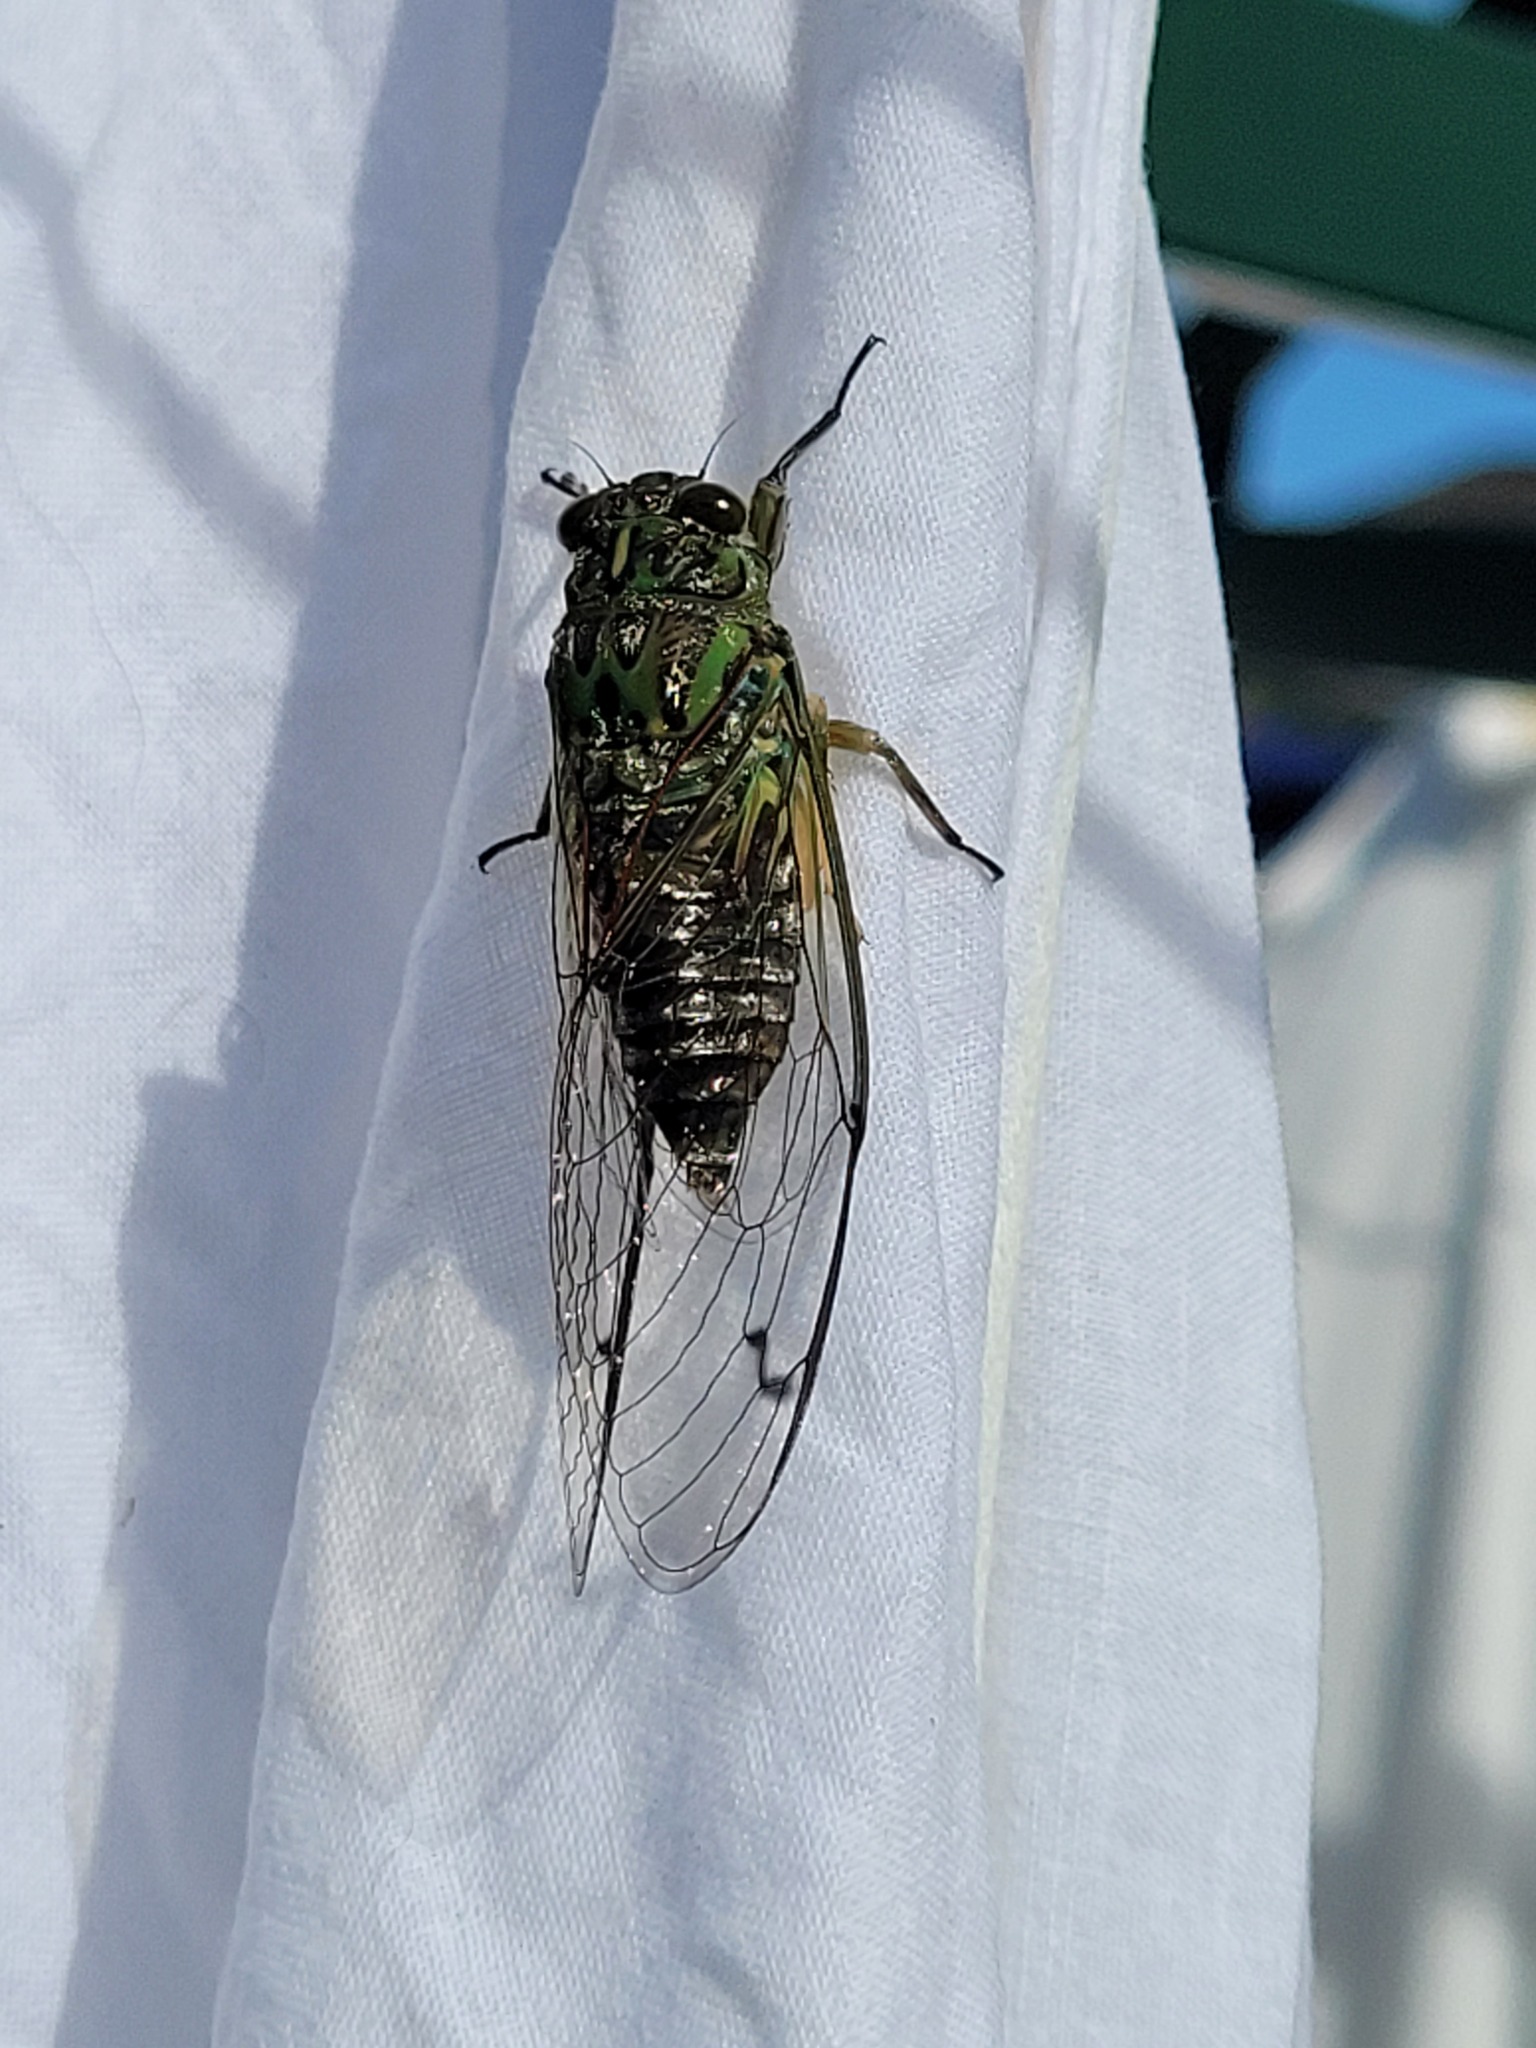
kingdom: Animalia
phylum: Arthropoda
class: Insecta
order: Hemiptera
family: Cicadidae
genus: Amphipsalta
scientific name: Amphipsalta zelandica
